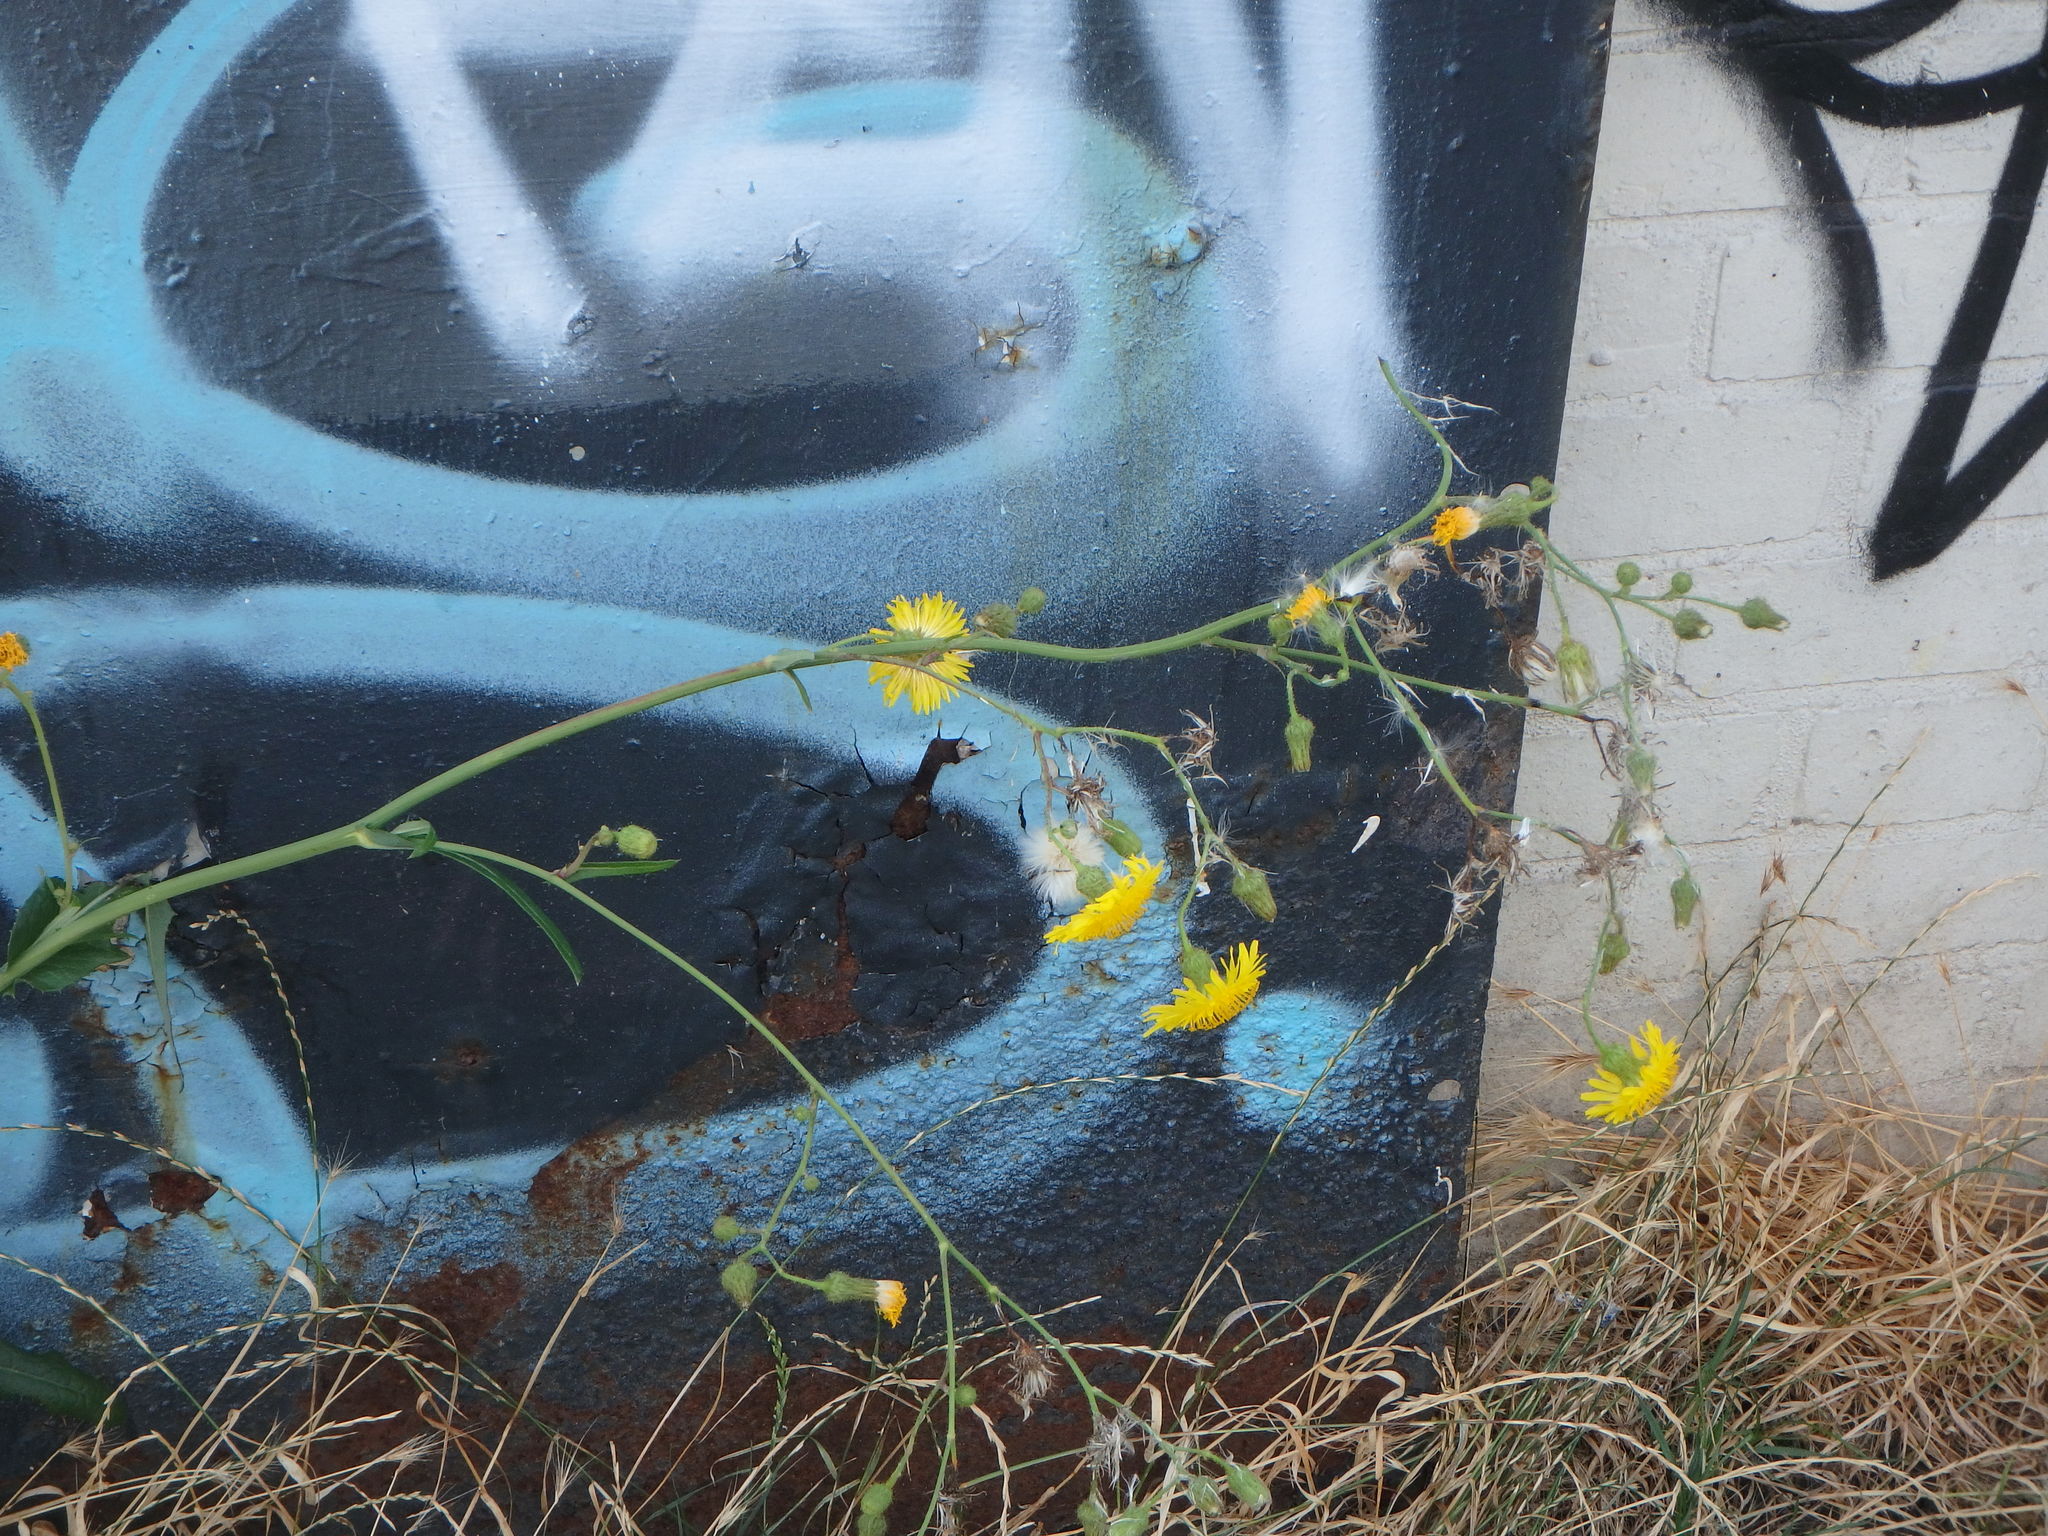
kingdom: Plantae
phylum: Tracheophyta
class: Magnoliopsida
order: Asterales
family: Asteraceae
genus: Sonchus
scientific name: Sonchus arvensis
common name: Perennial sow-thistle
